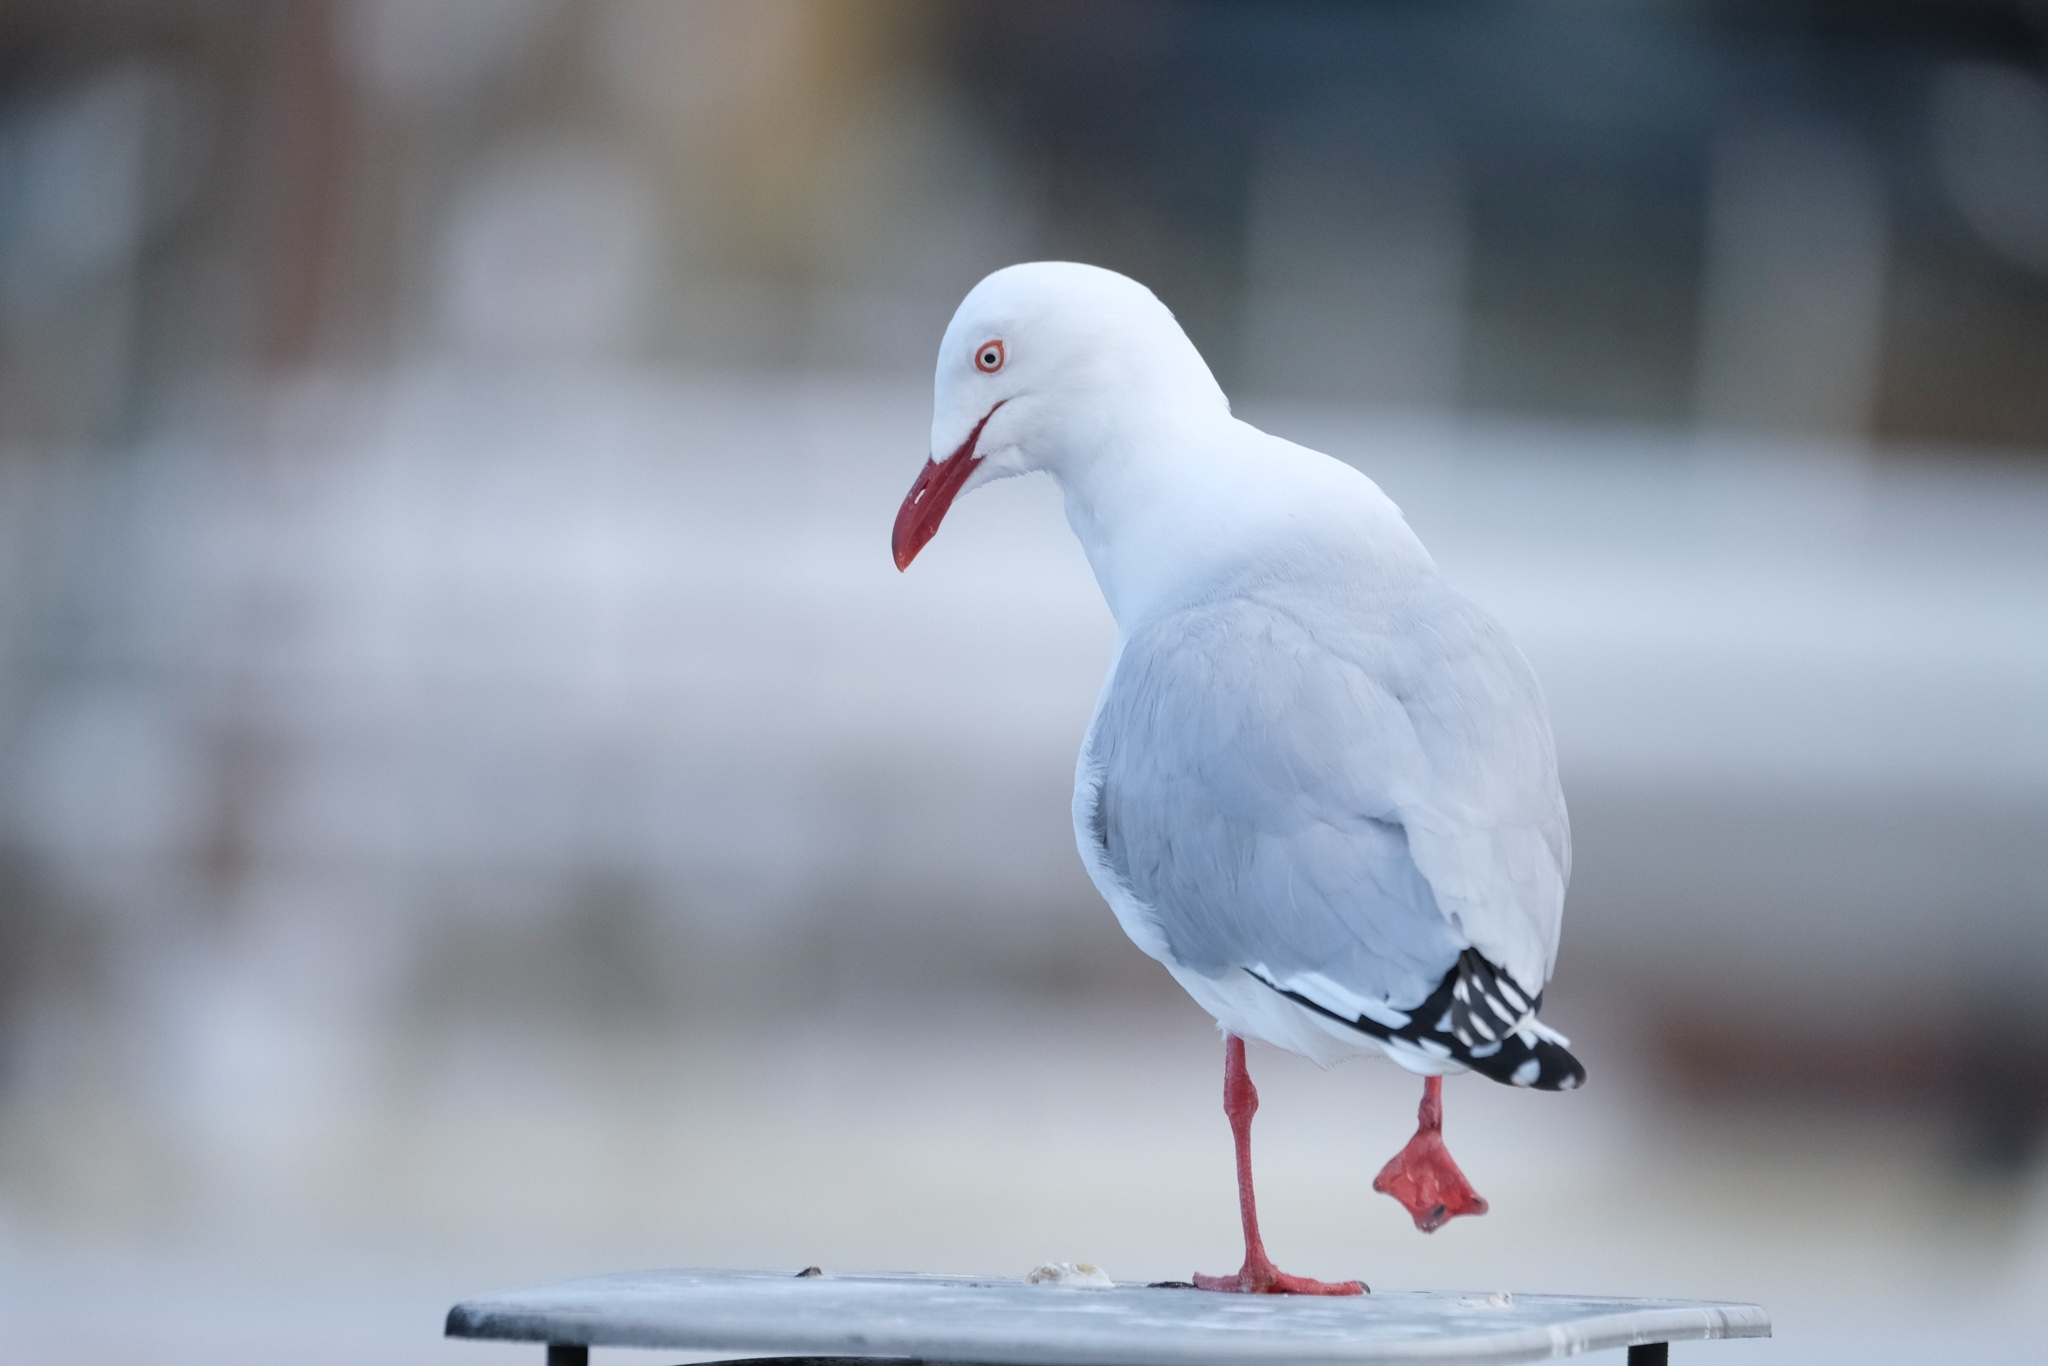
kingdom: Animalia
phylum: Chordata
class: Aves
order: Charadriiformes
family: Laridae
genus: Chroicocephalus
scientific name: Chroicocephalus novaehollandiae
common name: Silver gull
